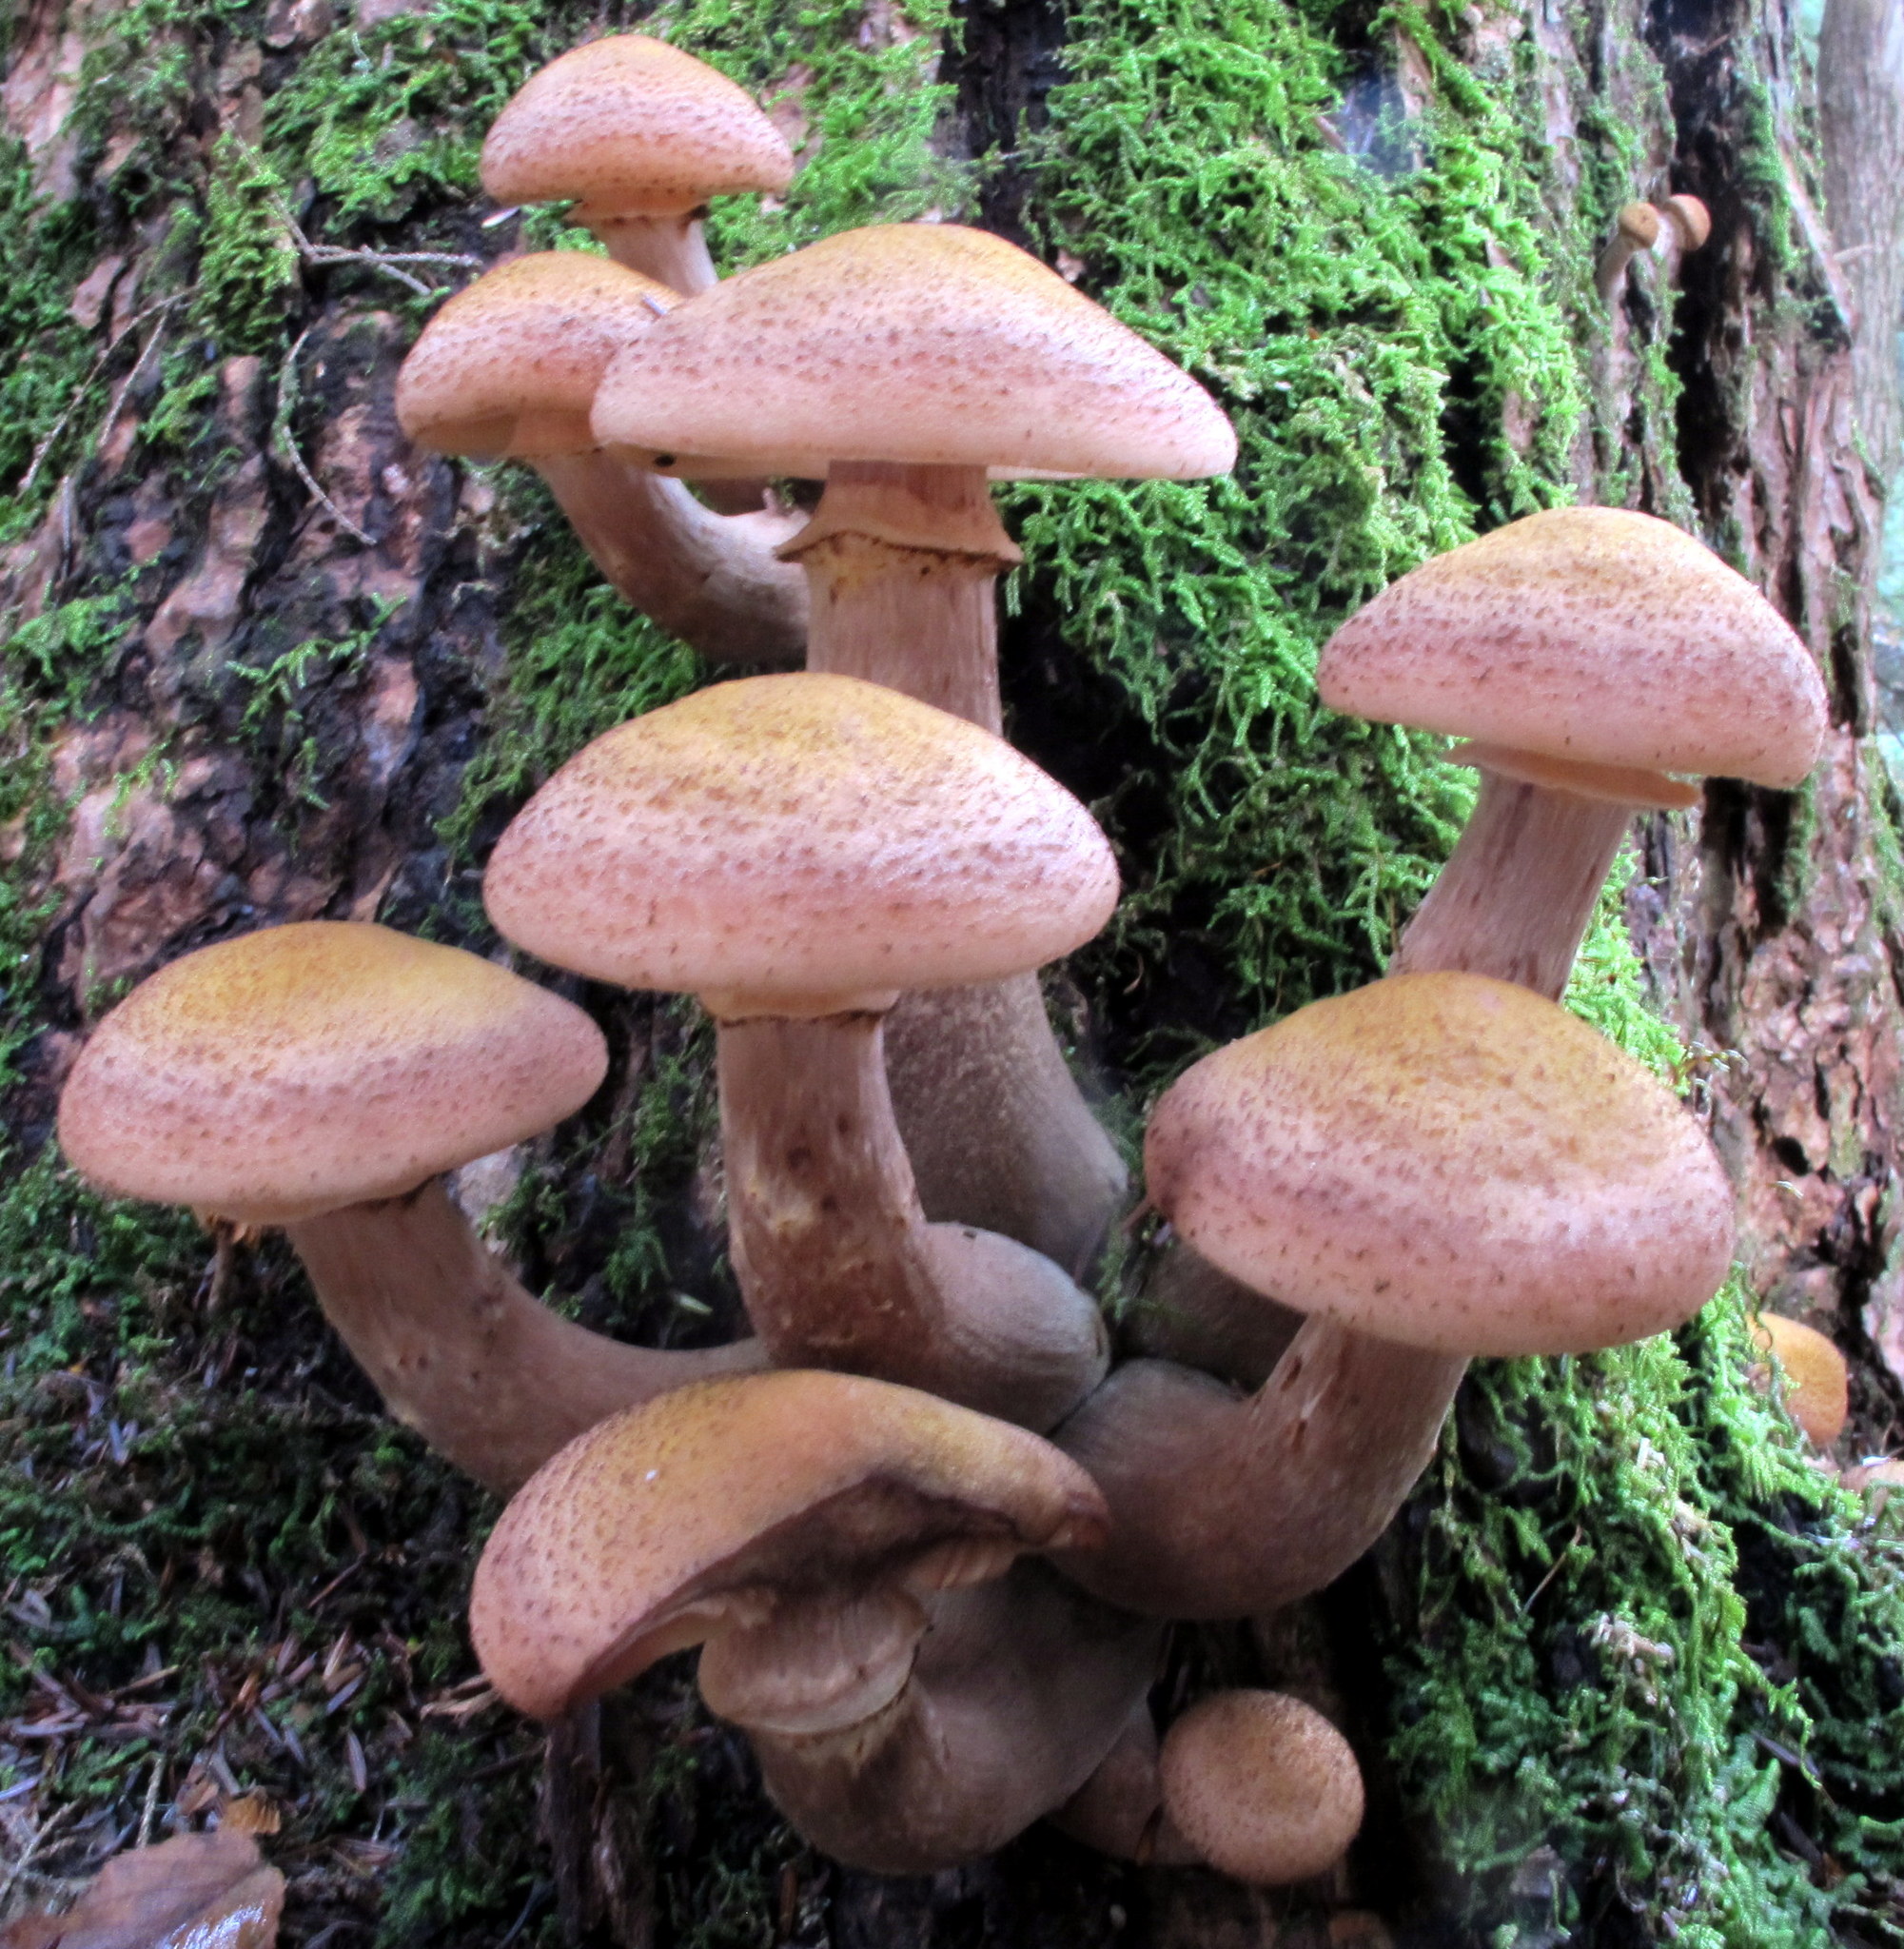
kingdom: Fungi
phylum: Basidiomycota
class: Agaricomycetes
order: Agaricales
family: Physalacriaceae
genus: Armillaria
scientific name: Armillaria ostoyae
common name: Dark honey fungus
